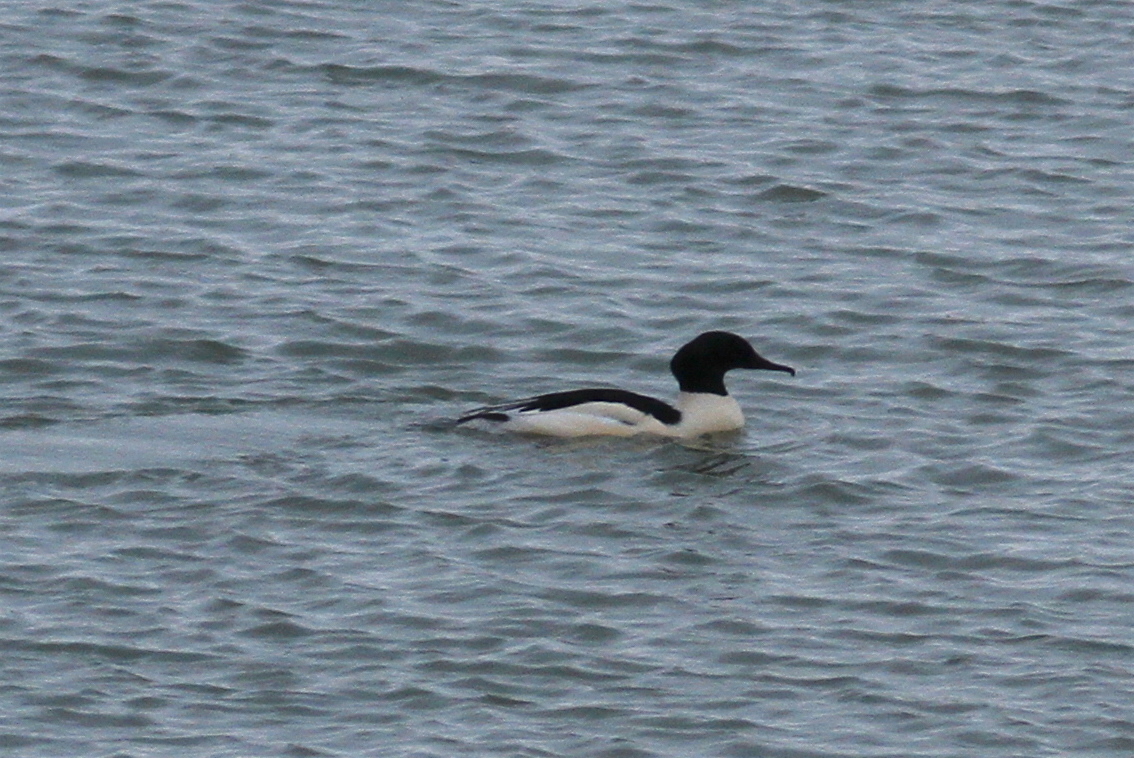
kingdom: Animalia
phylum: Chordata
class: Aves
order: Anseriformes
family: Anatidae
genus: Mergus
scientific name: Mergus merganser
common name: Common merganser
